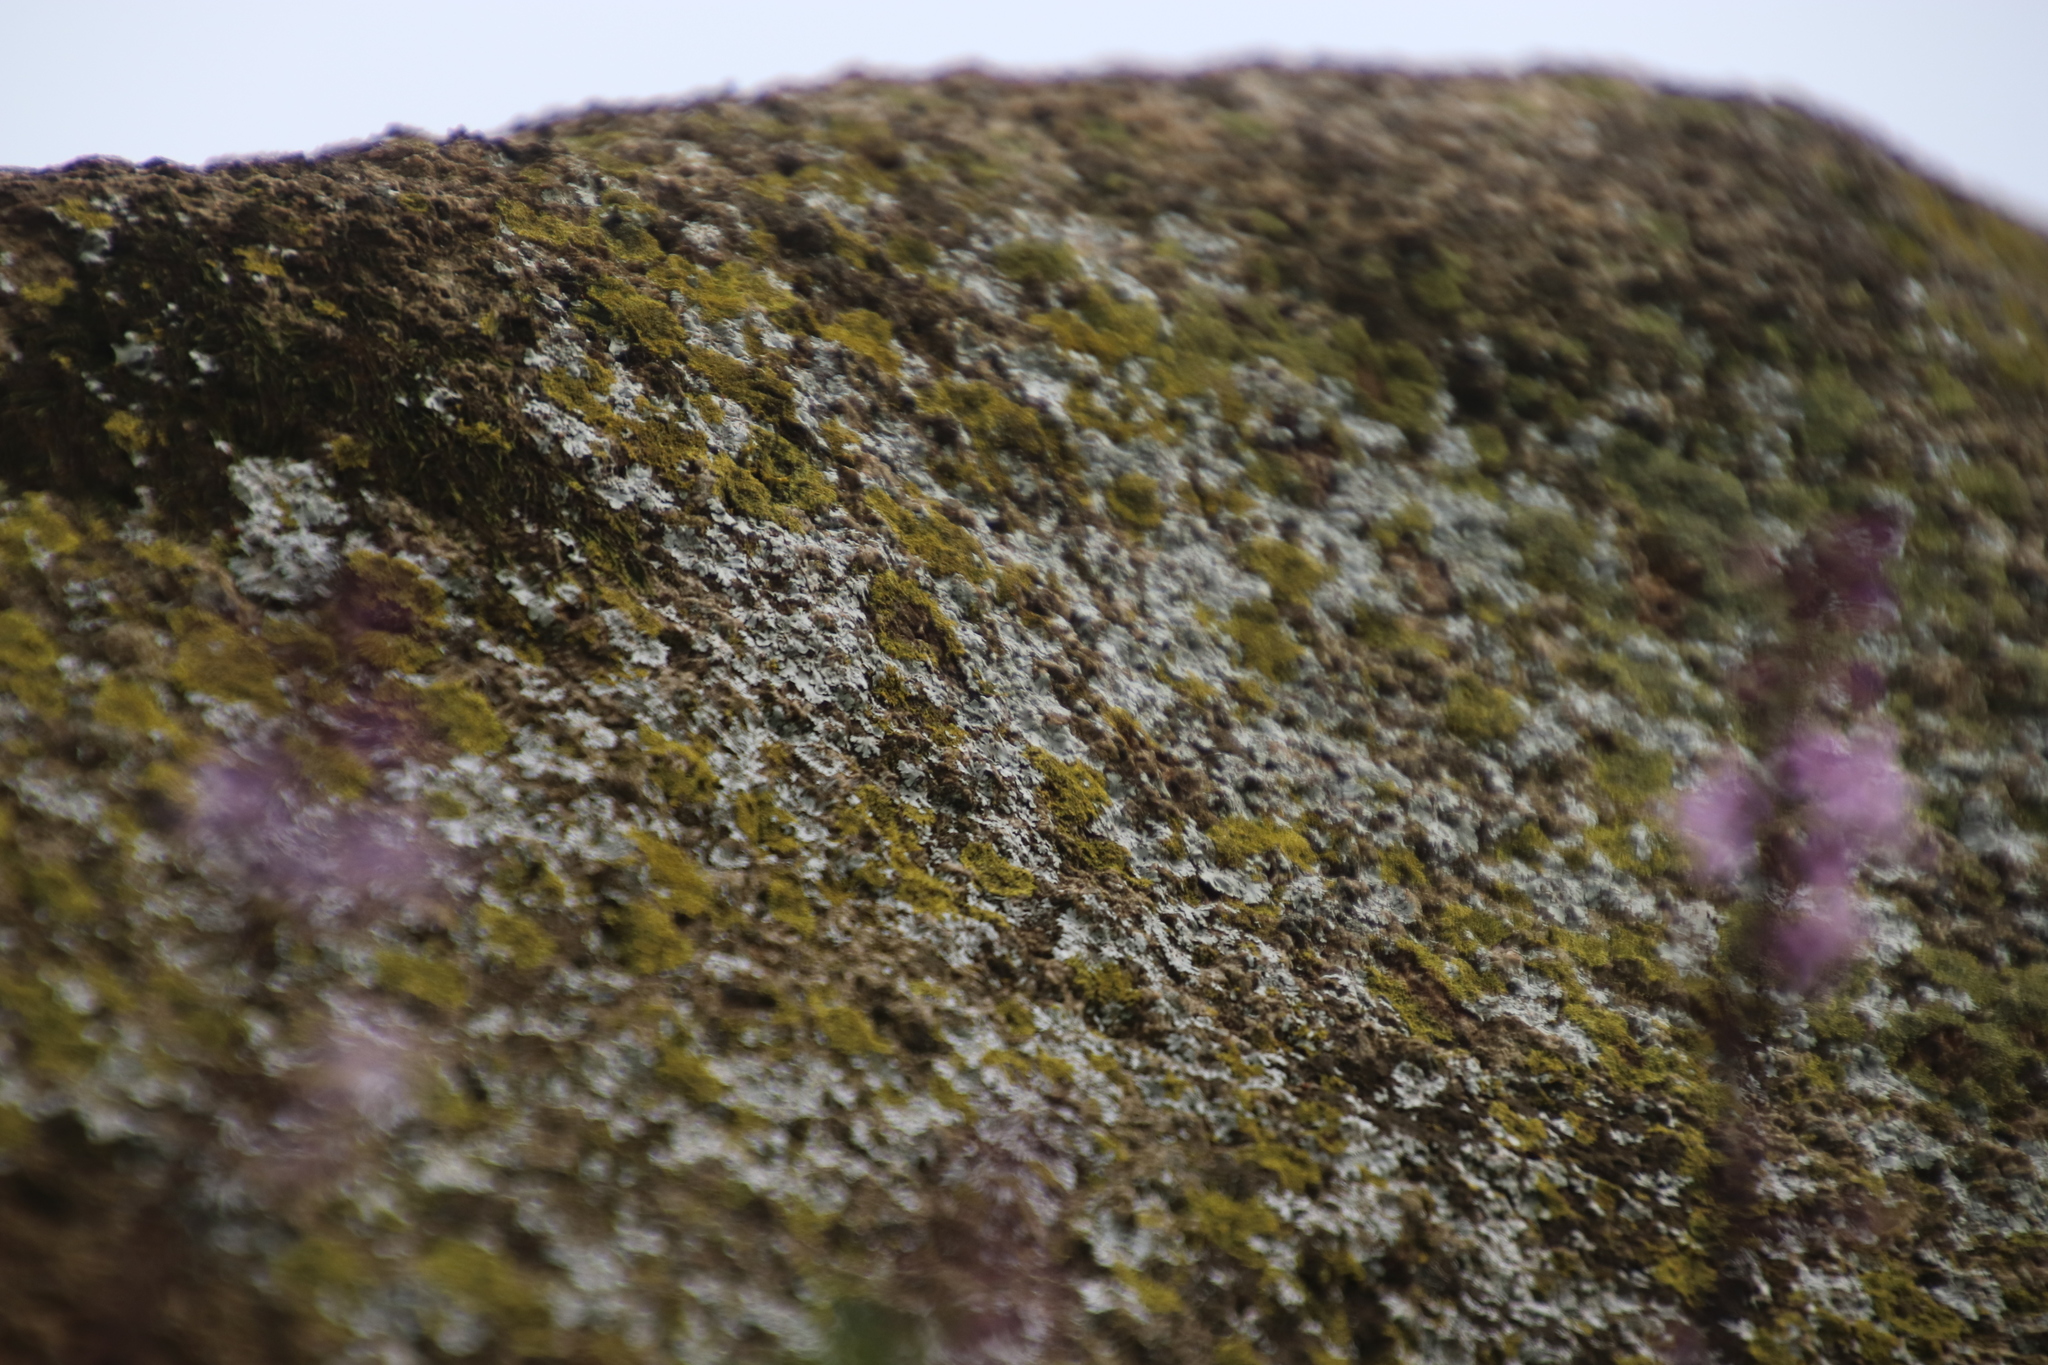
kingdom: Fungi
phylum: Ascomycota
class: Candelariomycetes
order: Candelariales
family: Candelariaceae
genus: Candelaria
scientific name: Candelaria concolor
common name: Candleflame lichen
